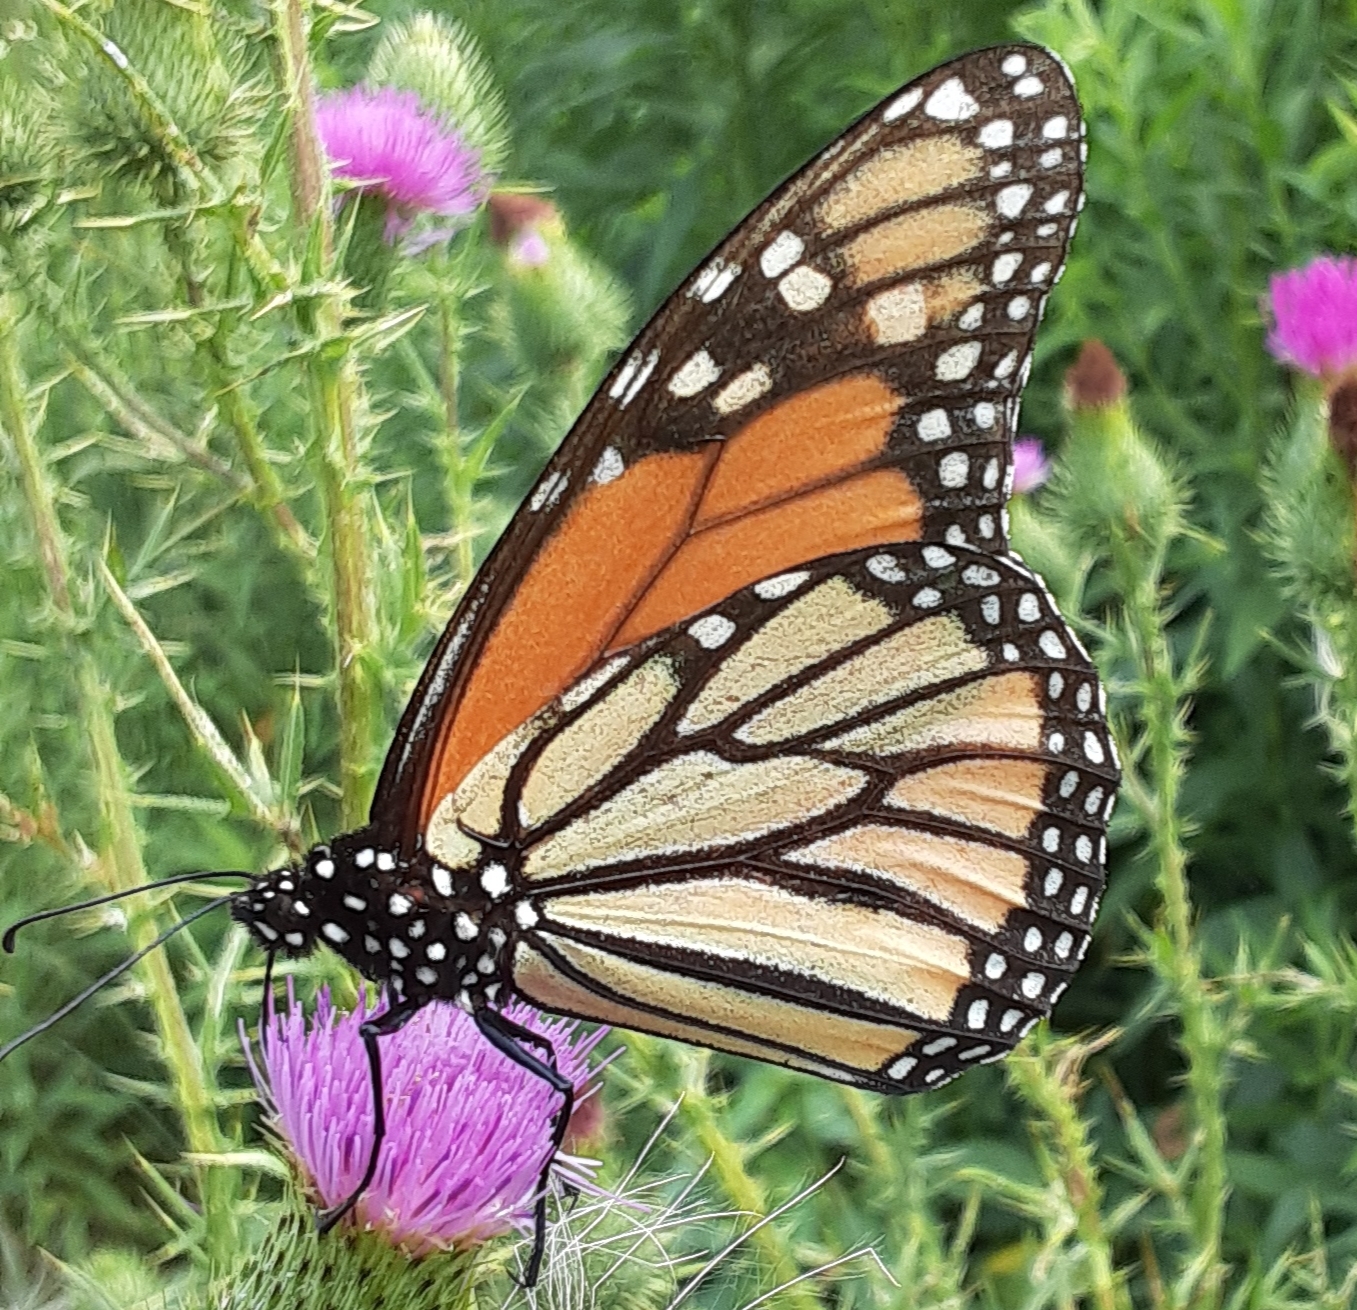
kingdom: Animalia
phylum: Arthropoda
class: Insecta
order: Lepidoptera
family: Nymphalidae
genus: Danaus
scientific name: Danaus plexippus
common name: Monarch
